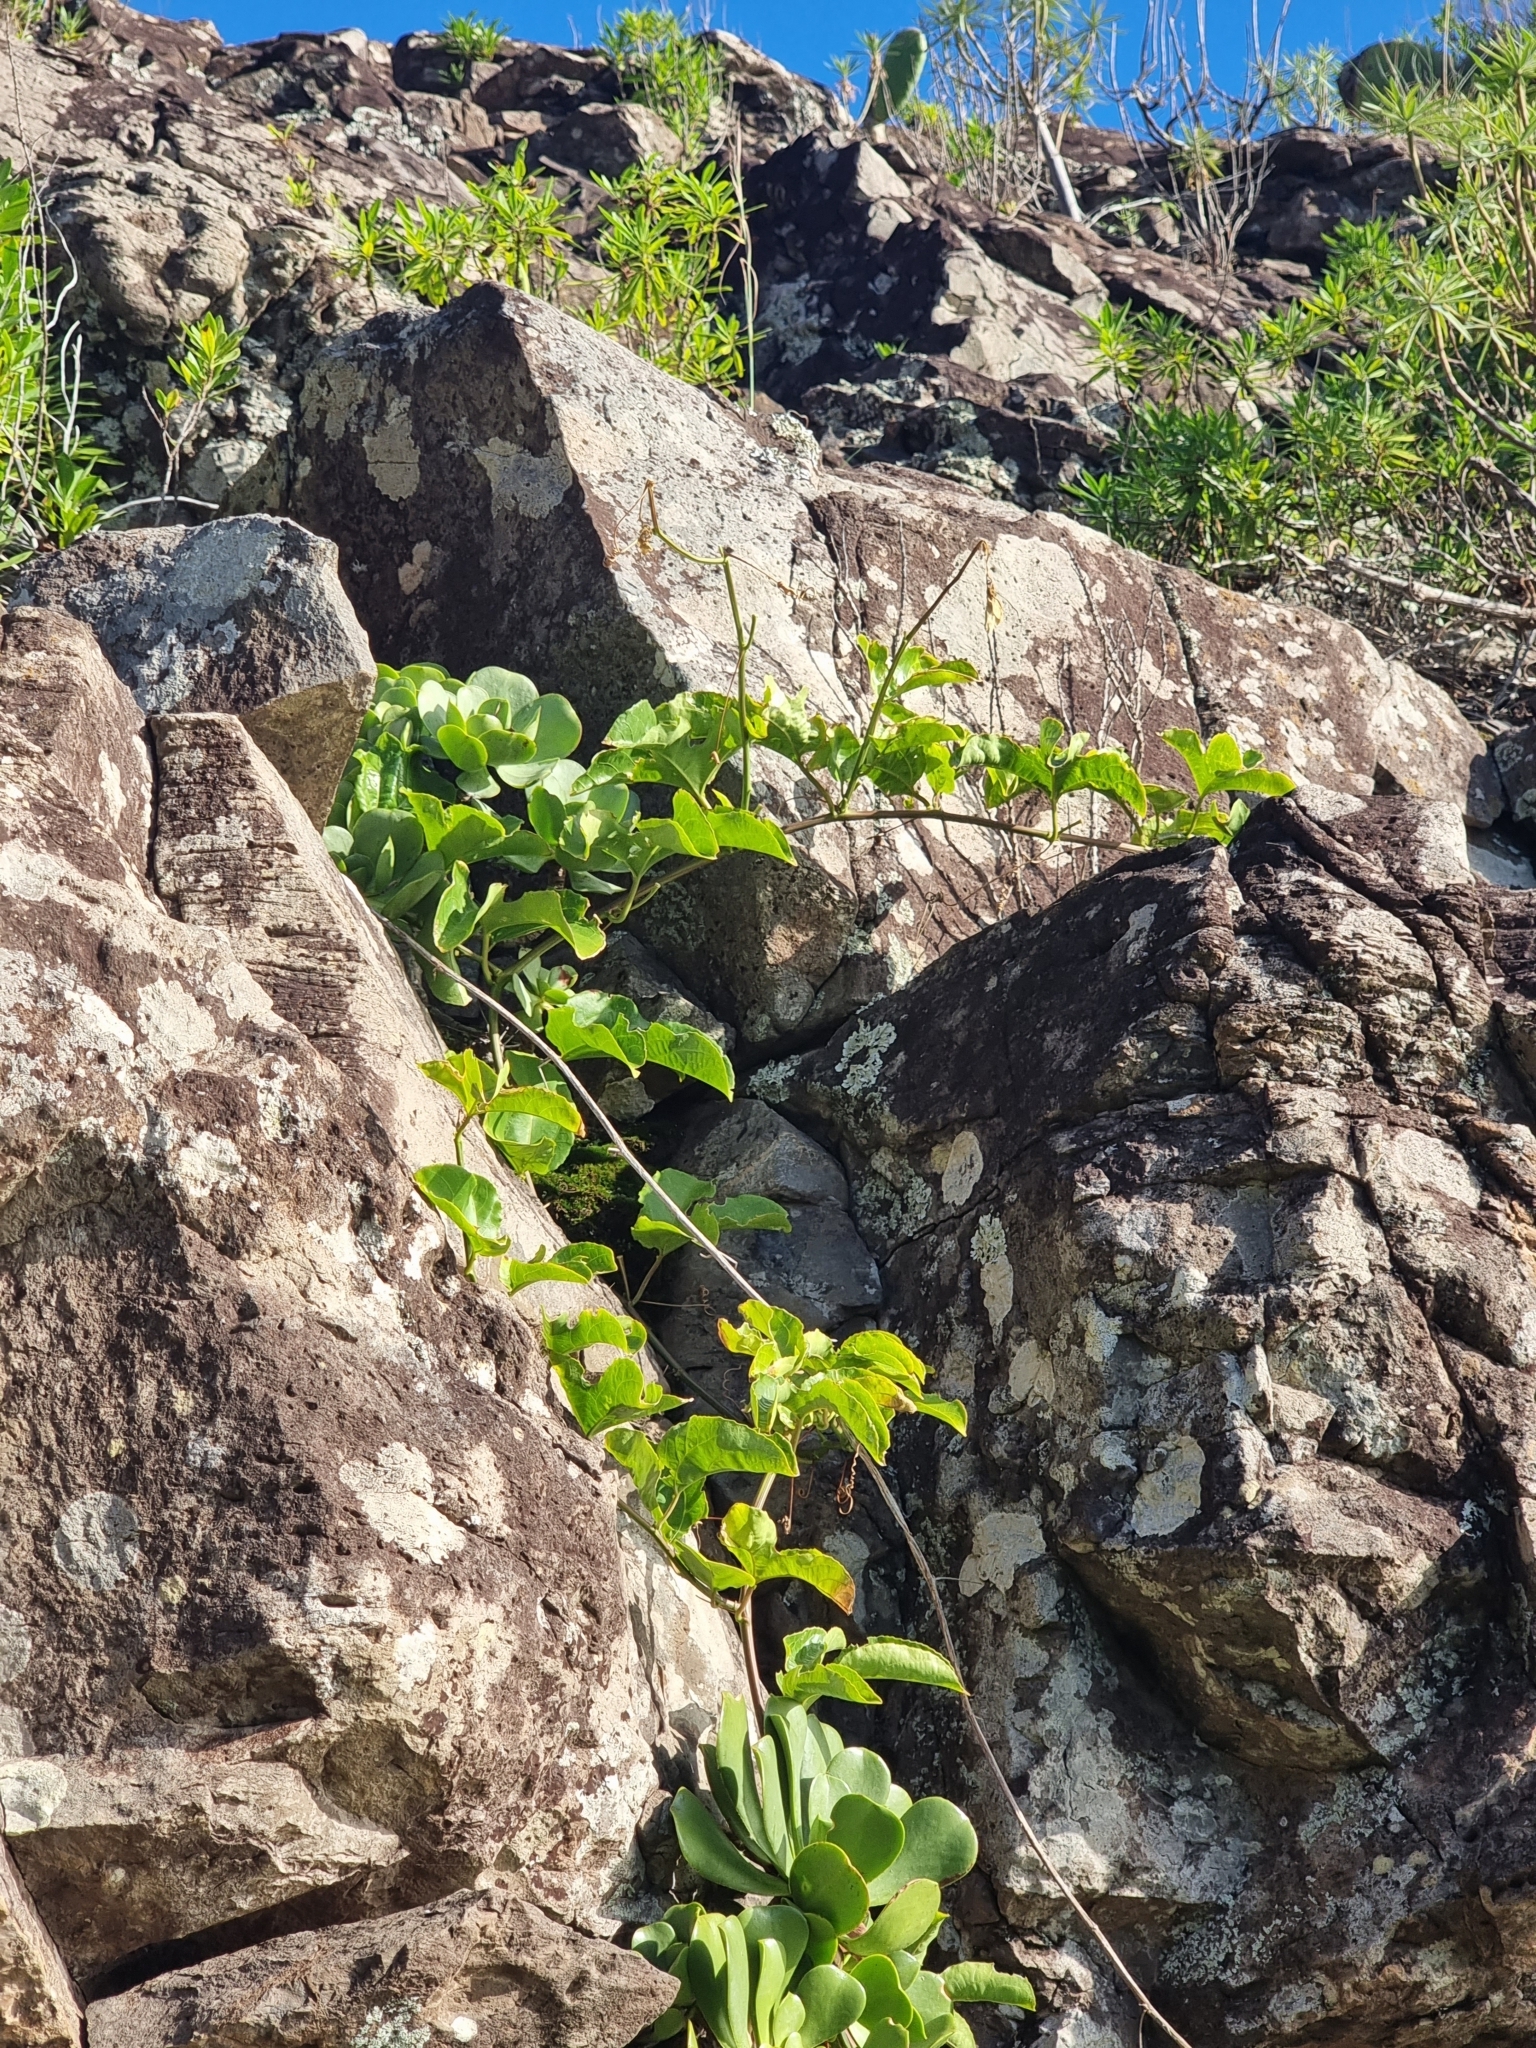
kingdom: Plantae
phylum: Tracheophyta
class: Magnoliopsida
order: Malpighiales
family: Passifloraceae
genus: Passiflora
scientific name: Passiflora edulis
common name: Purple granadilla
